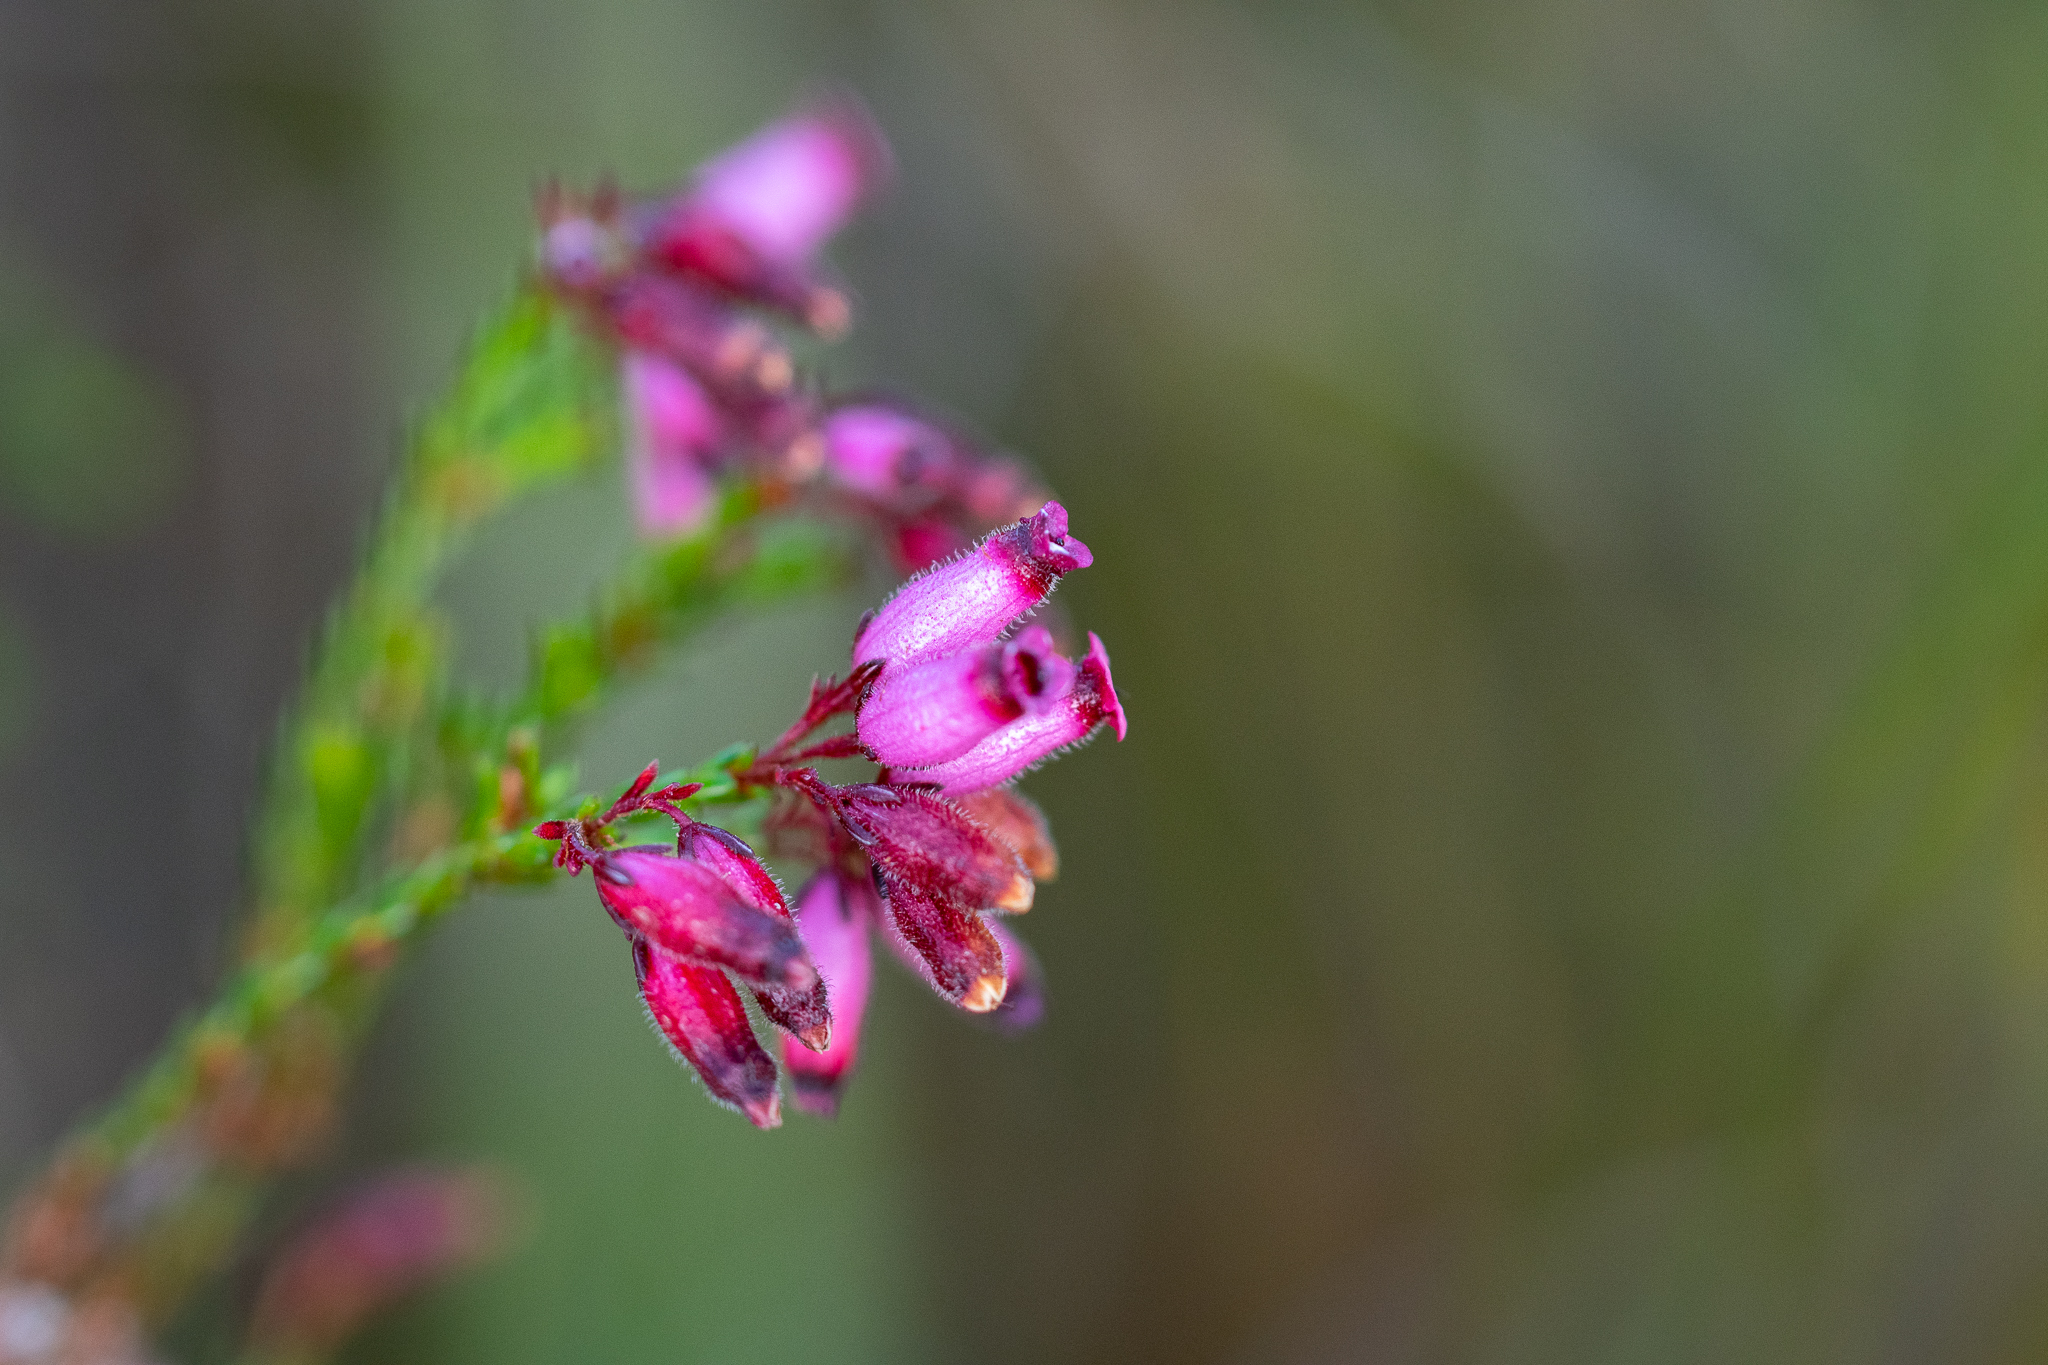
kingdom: Plantae
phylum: Tracheophyta
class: Magnoliopsida
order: Ericales
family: Ericaceae
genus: Erica
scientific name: Erica cristata
